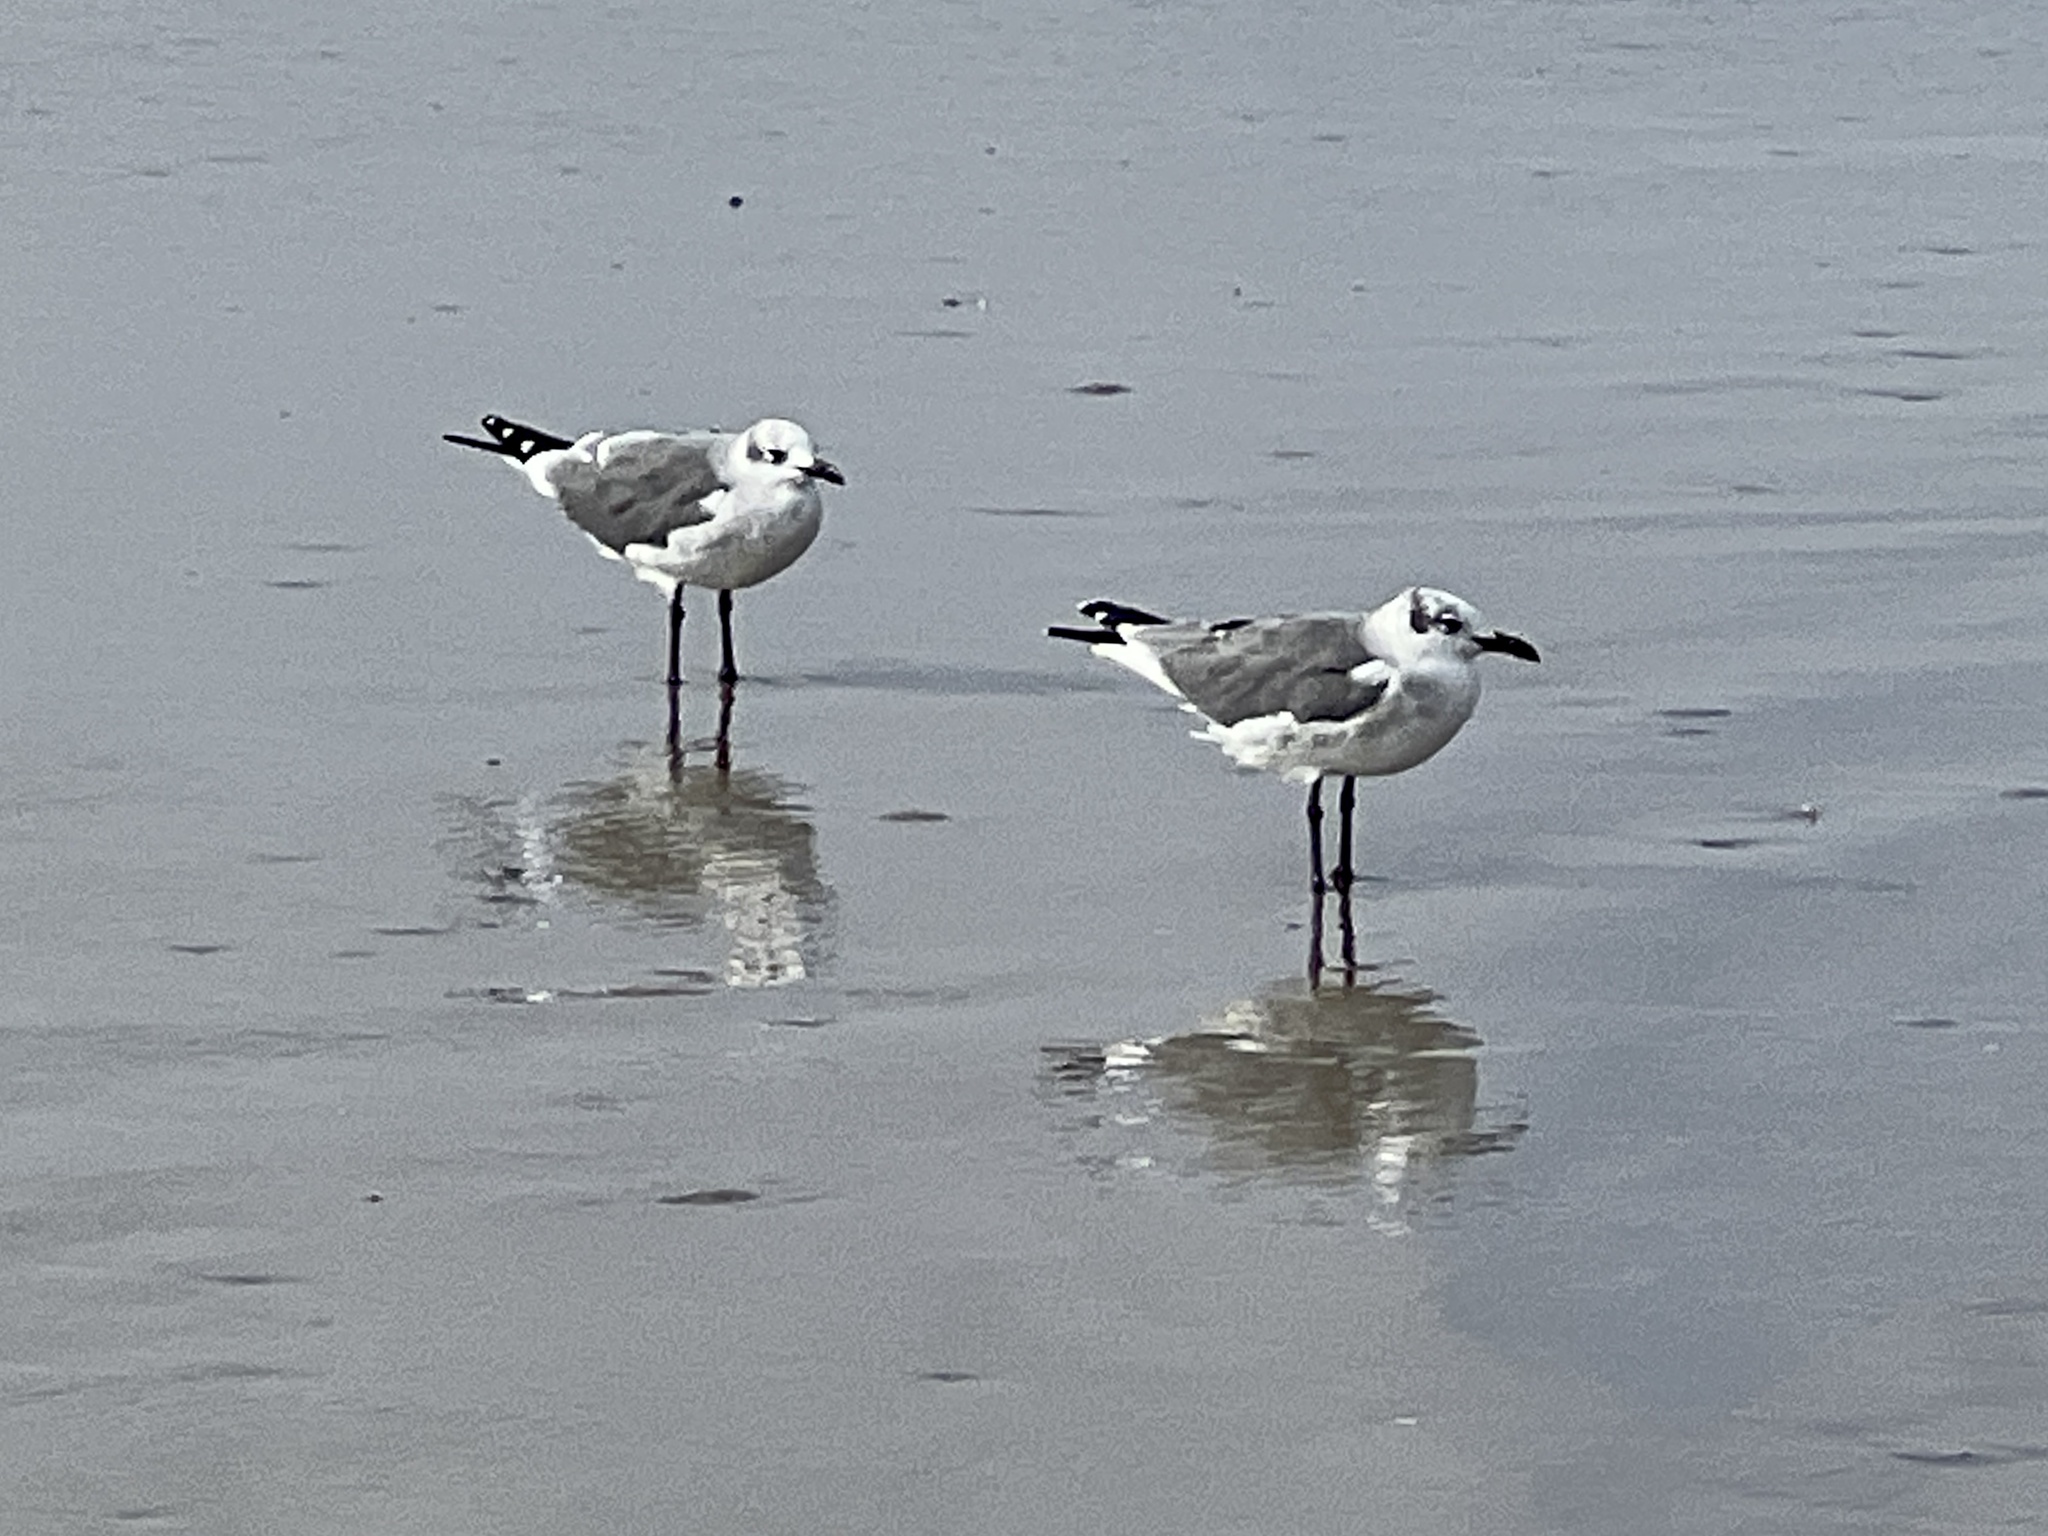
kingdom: Animalia
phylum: Chordata
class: Aves
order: Charadriiformes
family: Laridae
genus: Leucophaeus
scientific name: Leucophaeus atricilla
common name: Laughing gull
